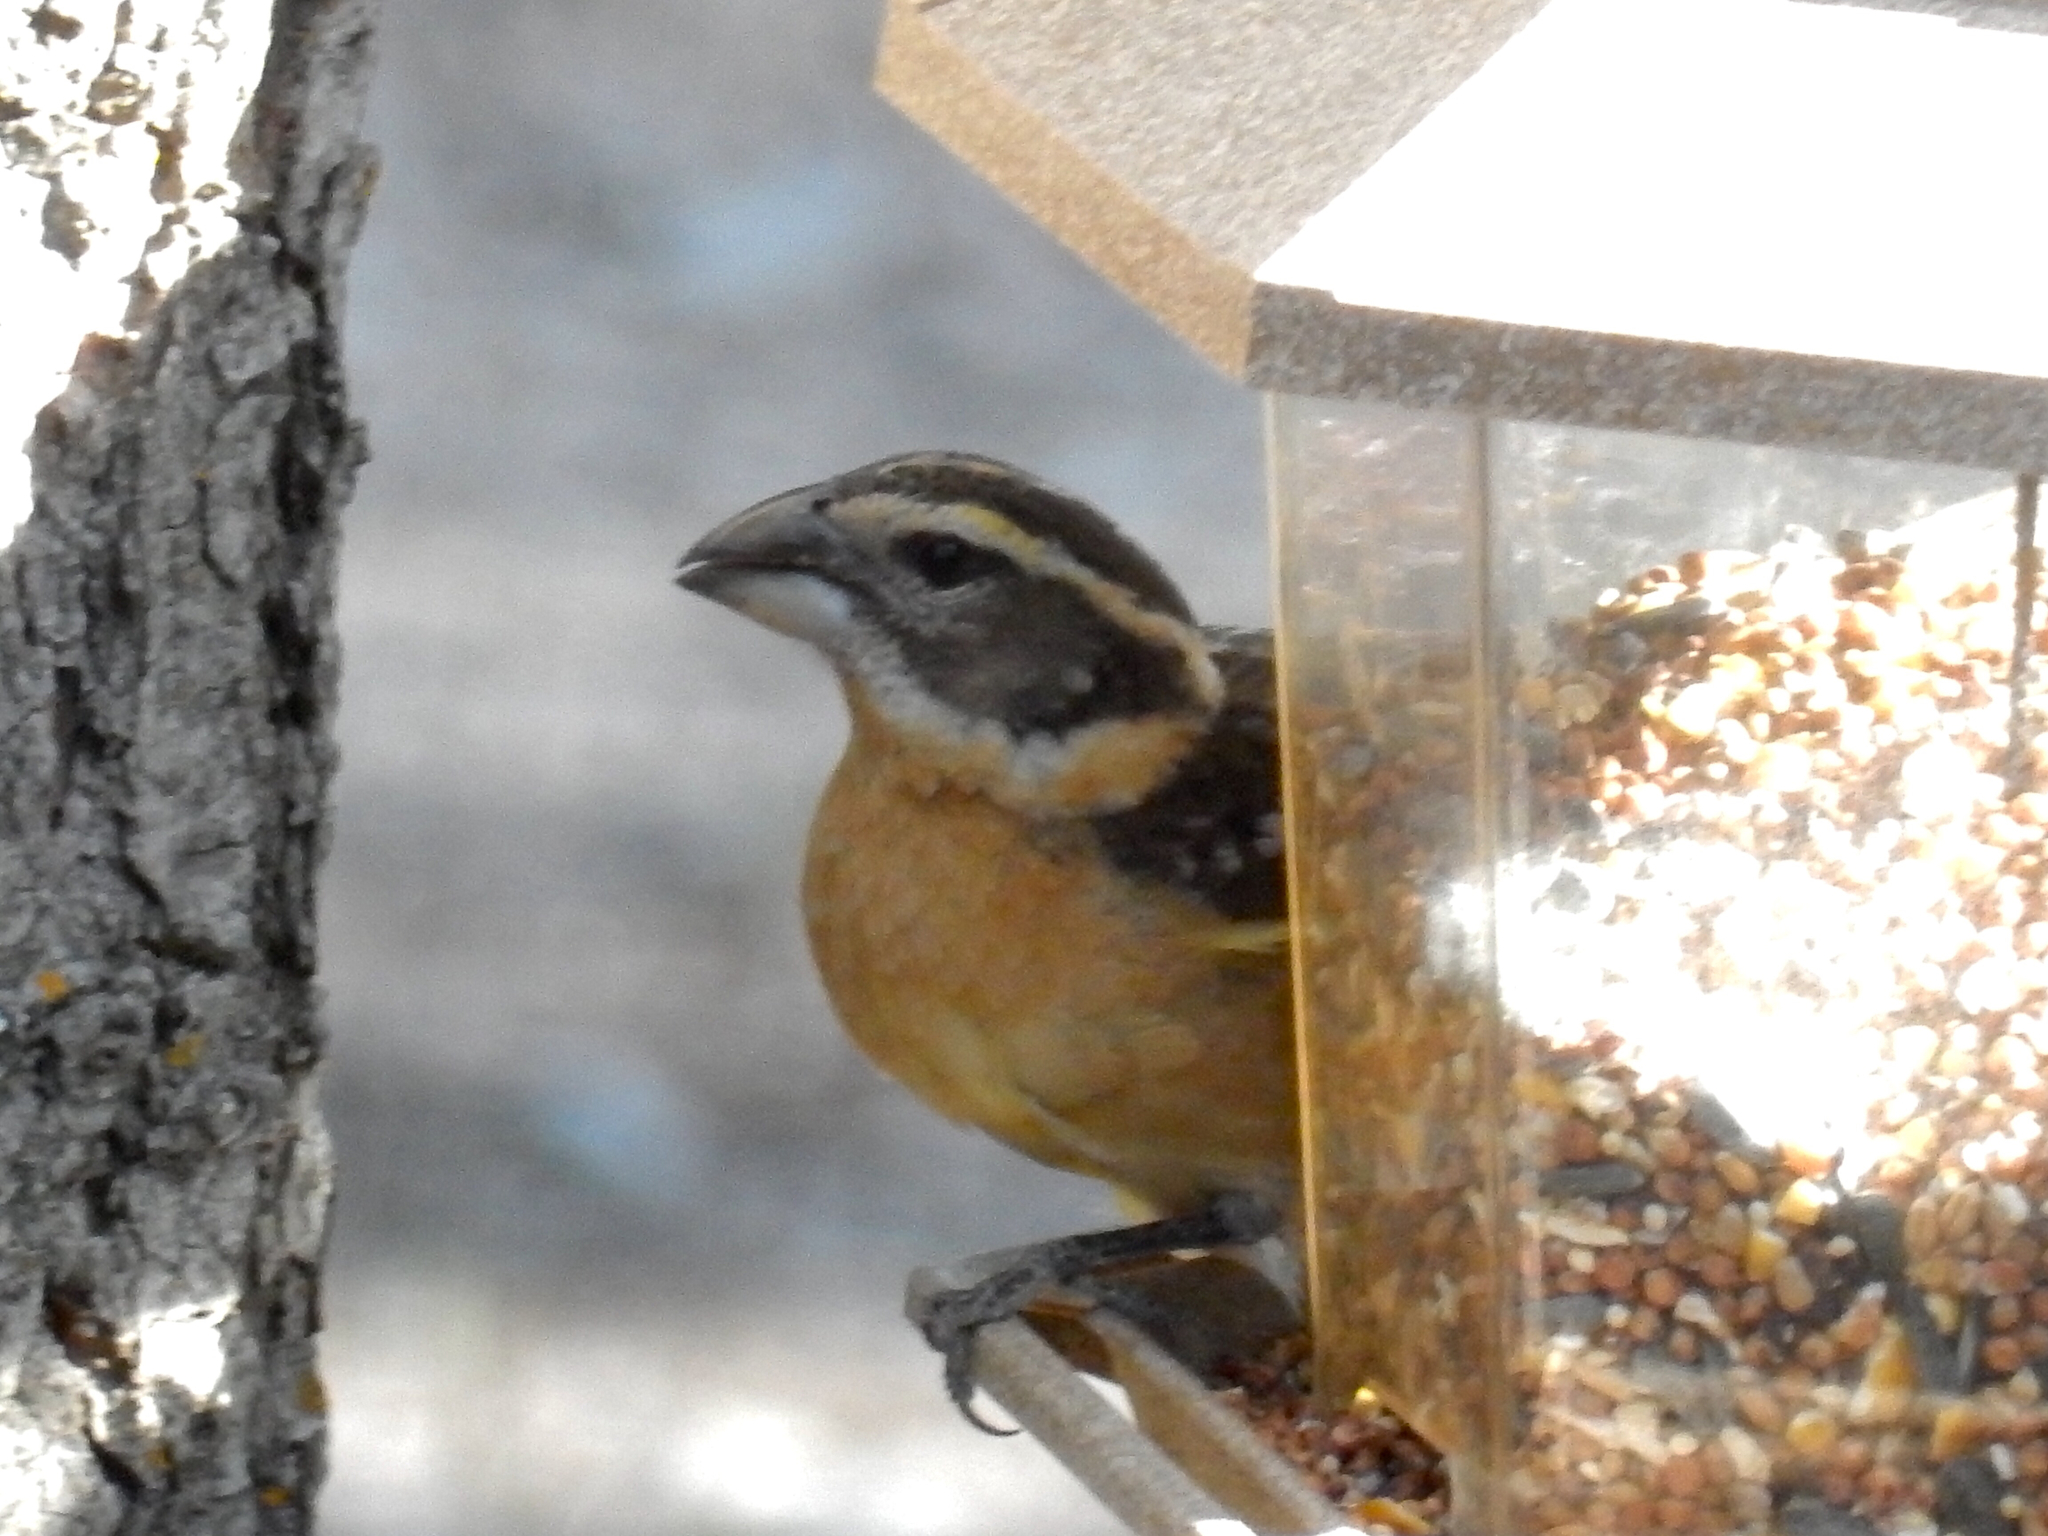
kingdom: Animalia
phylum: Chordata
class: Aves
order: Passeriformes
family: Cardinalidae
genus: Pheucticus
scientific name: Pheucticus melanocephalus
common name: Black-headed grosbeak
